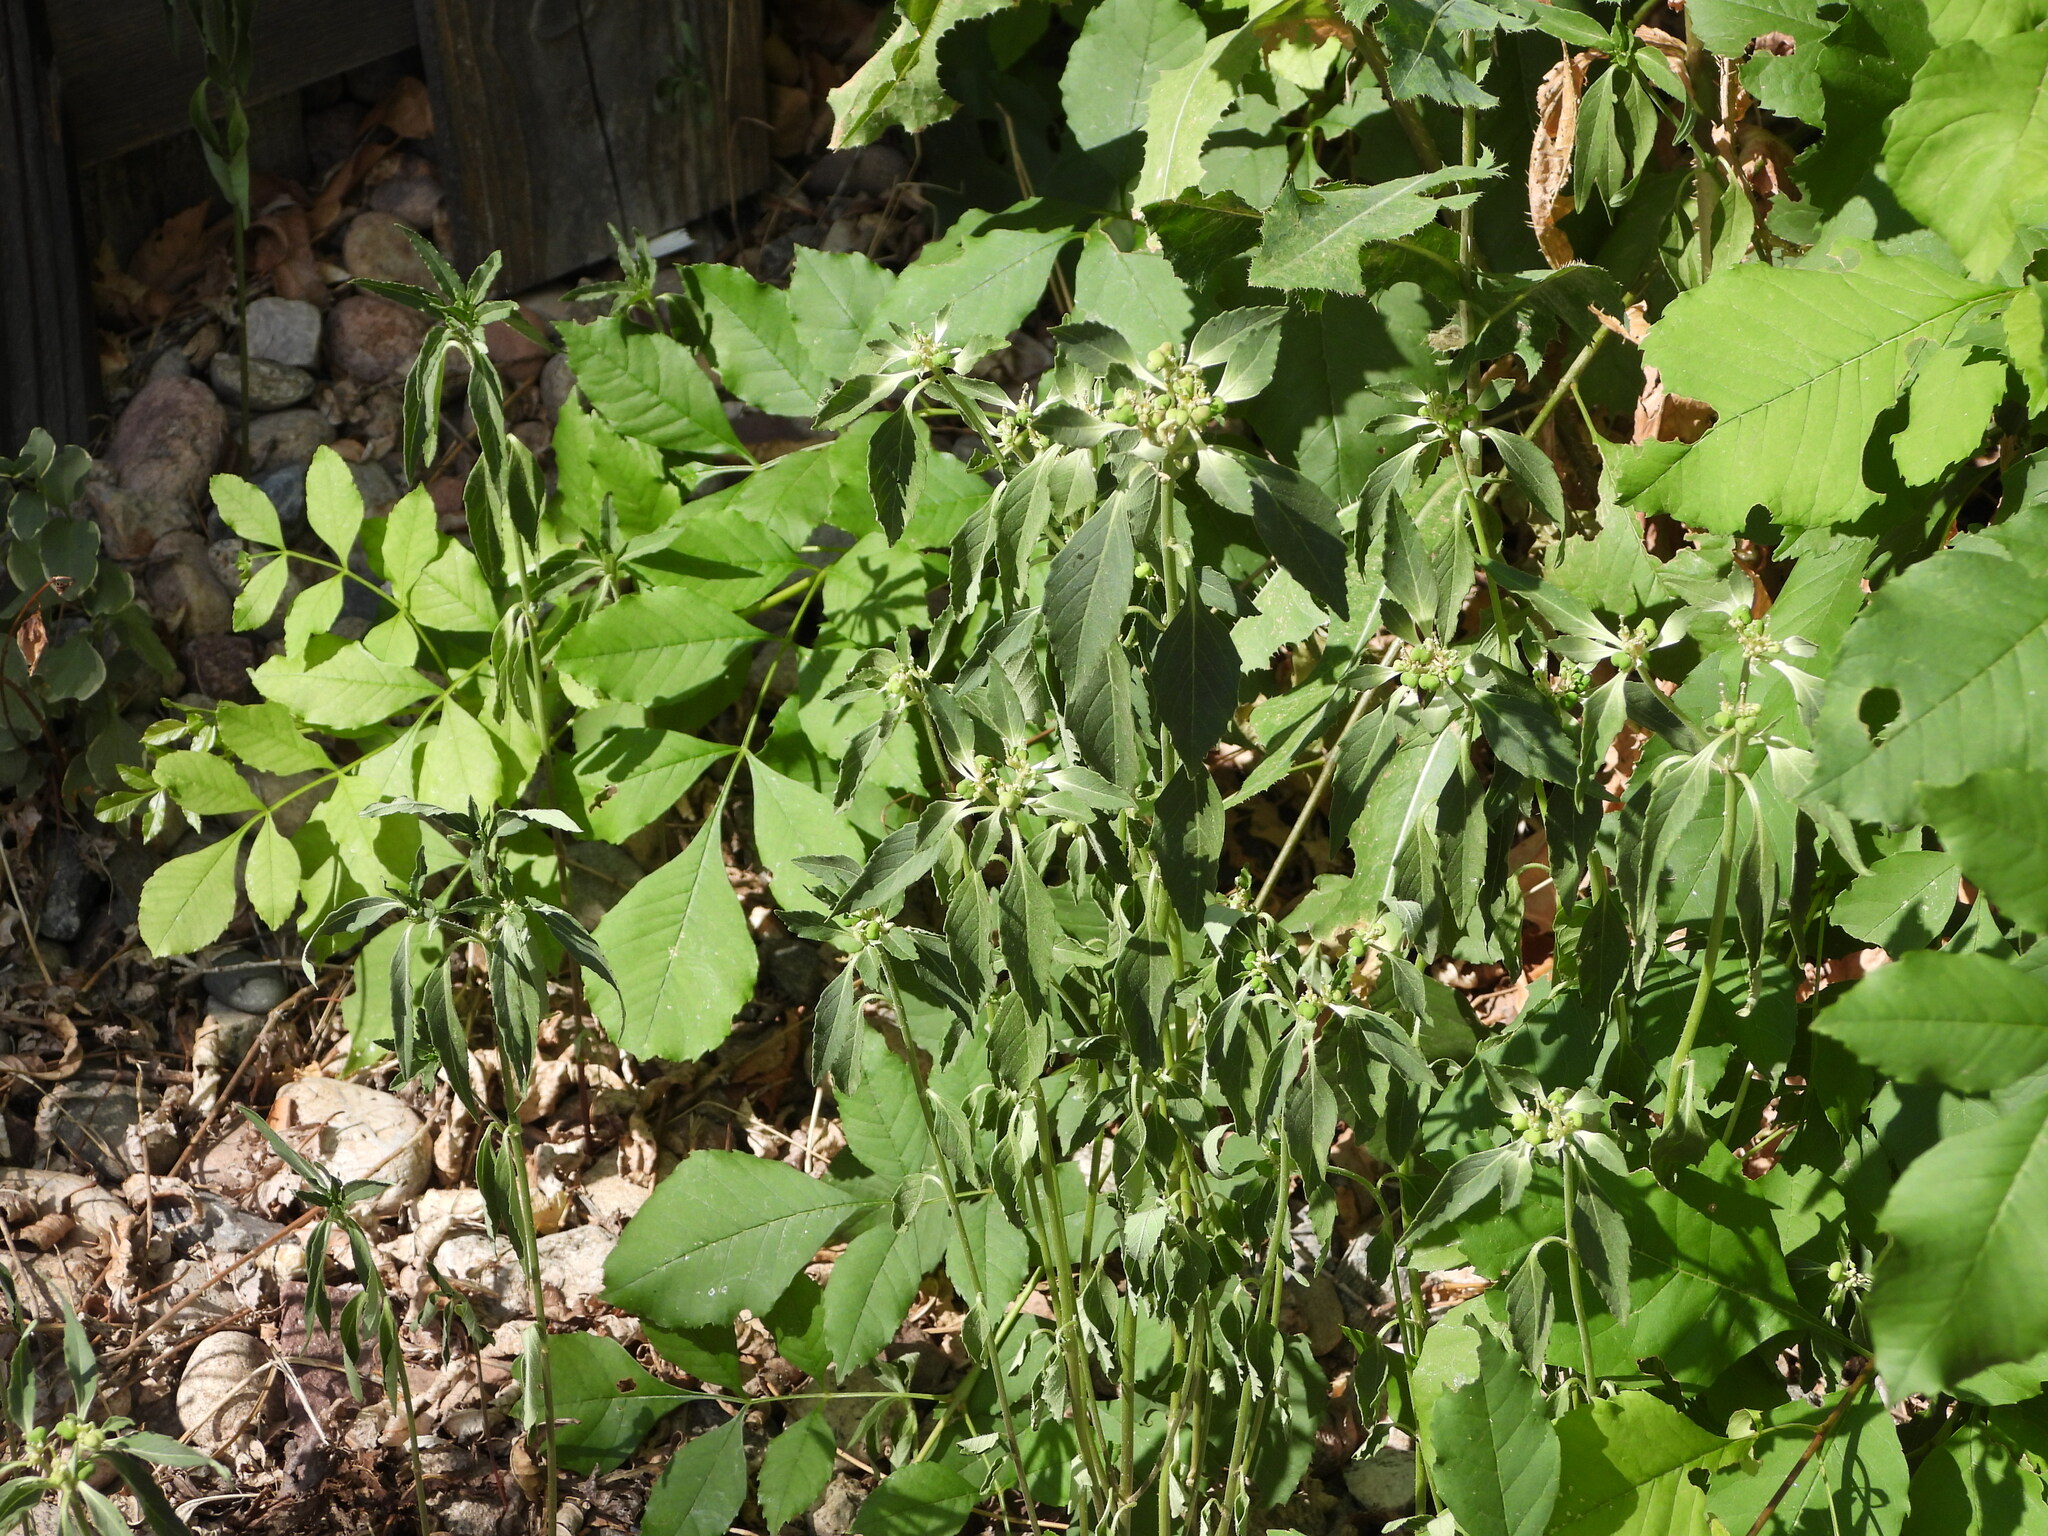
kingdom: Plantae
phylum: Tracheophyta
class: Magnoliopsida
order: Malpighiales
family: Euphorbiaceae
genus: Euphorbia
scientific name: Euphorbia davidii
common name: David's spurge
